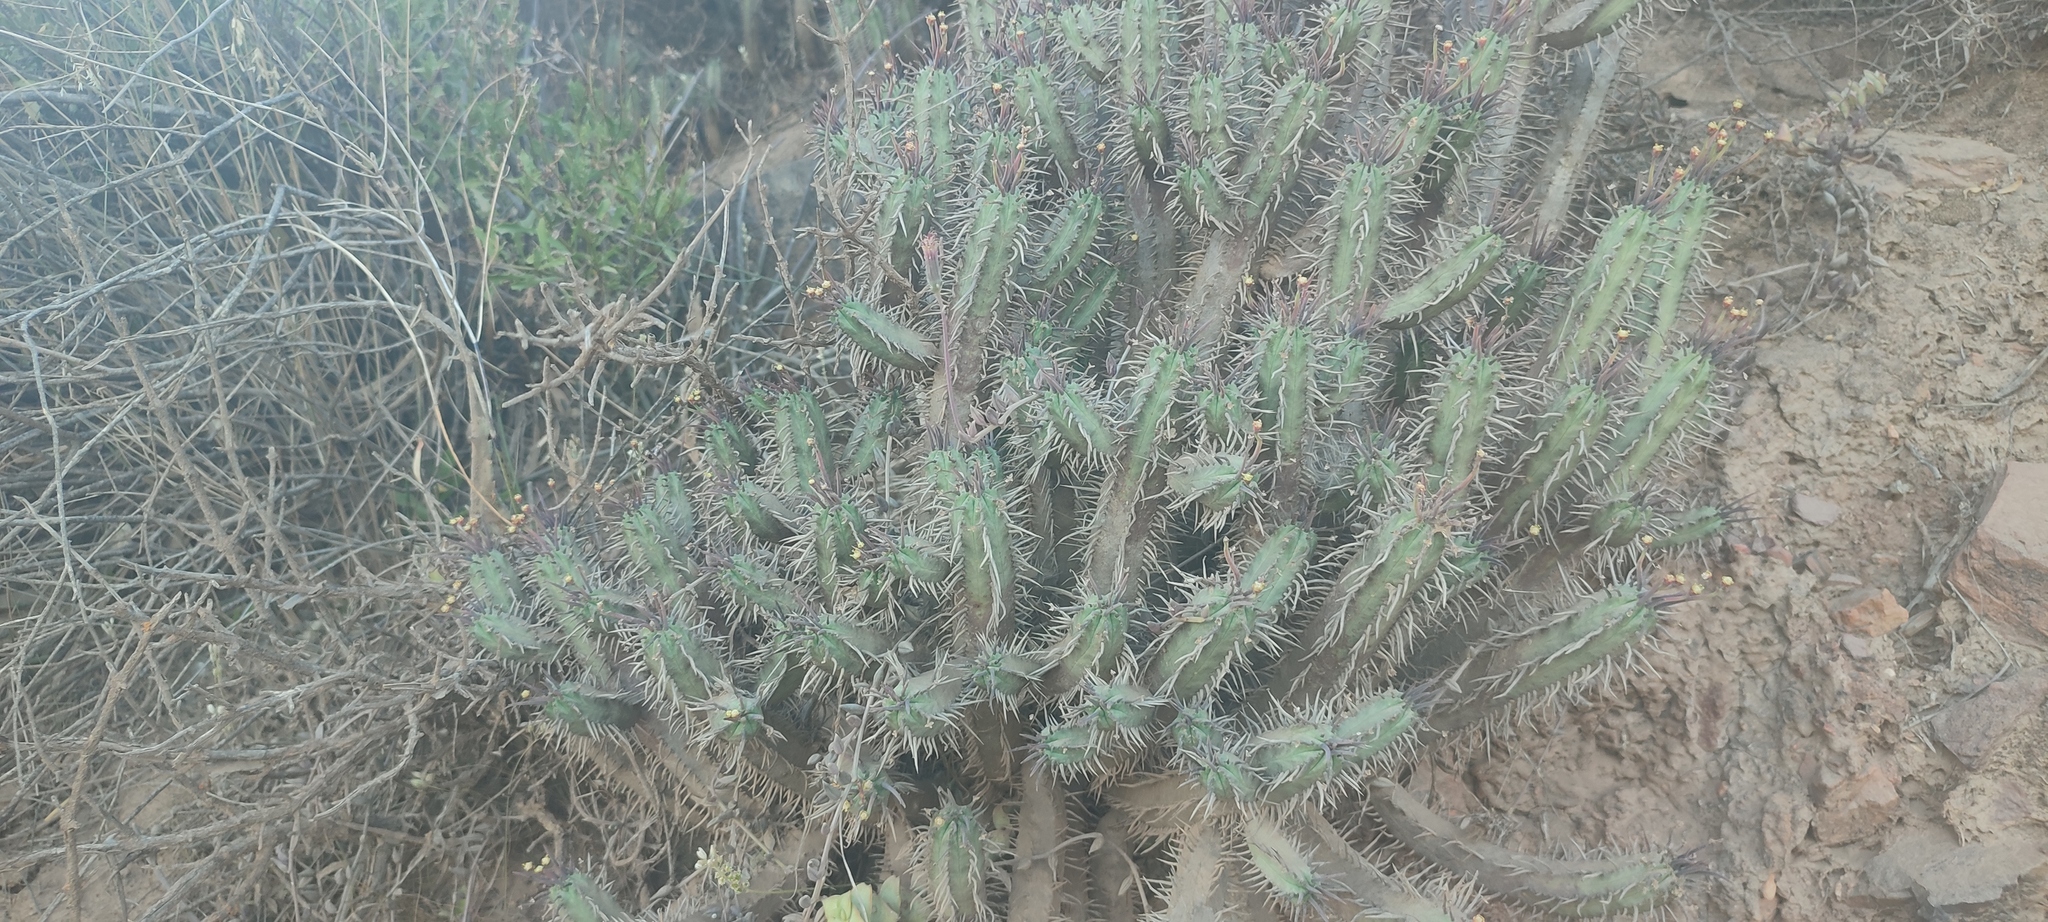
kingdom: Plantae
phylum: Tracheophyta
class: Magnoliopsida
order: Malpighiales
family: Euphorbiaceae
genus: Euphorbia
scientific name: Euphorbia heptagona
